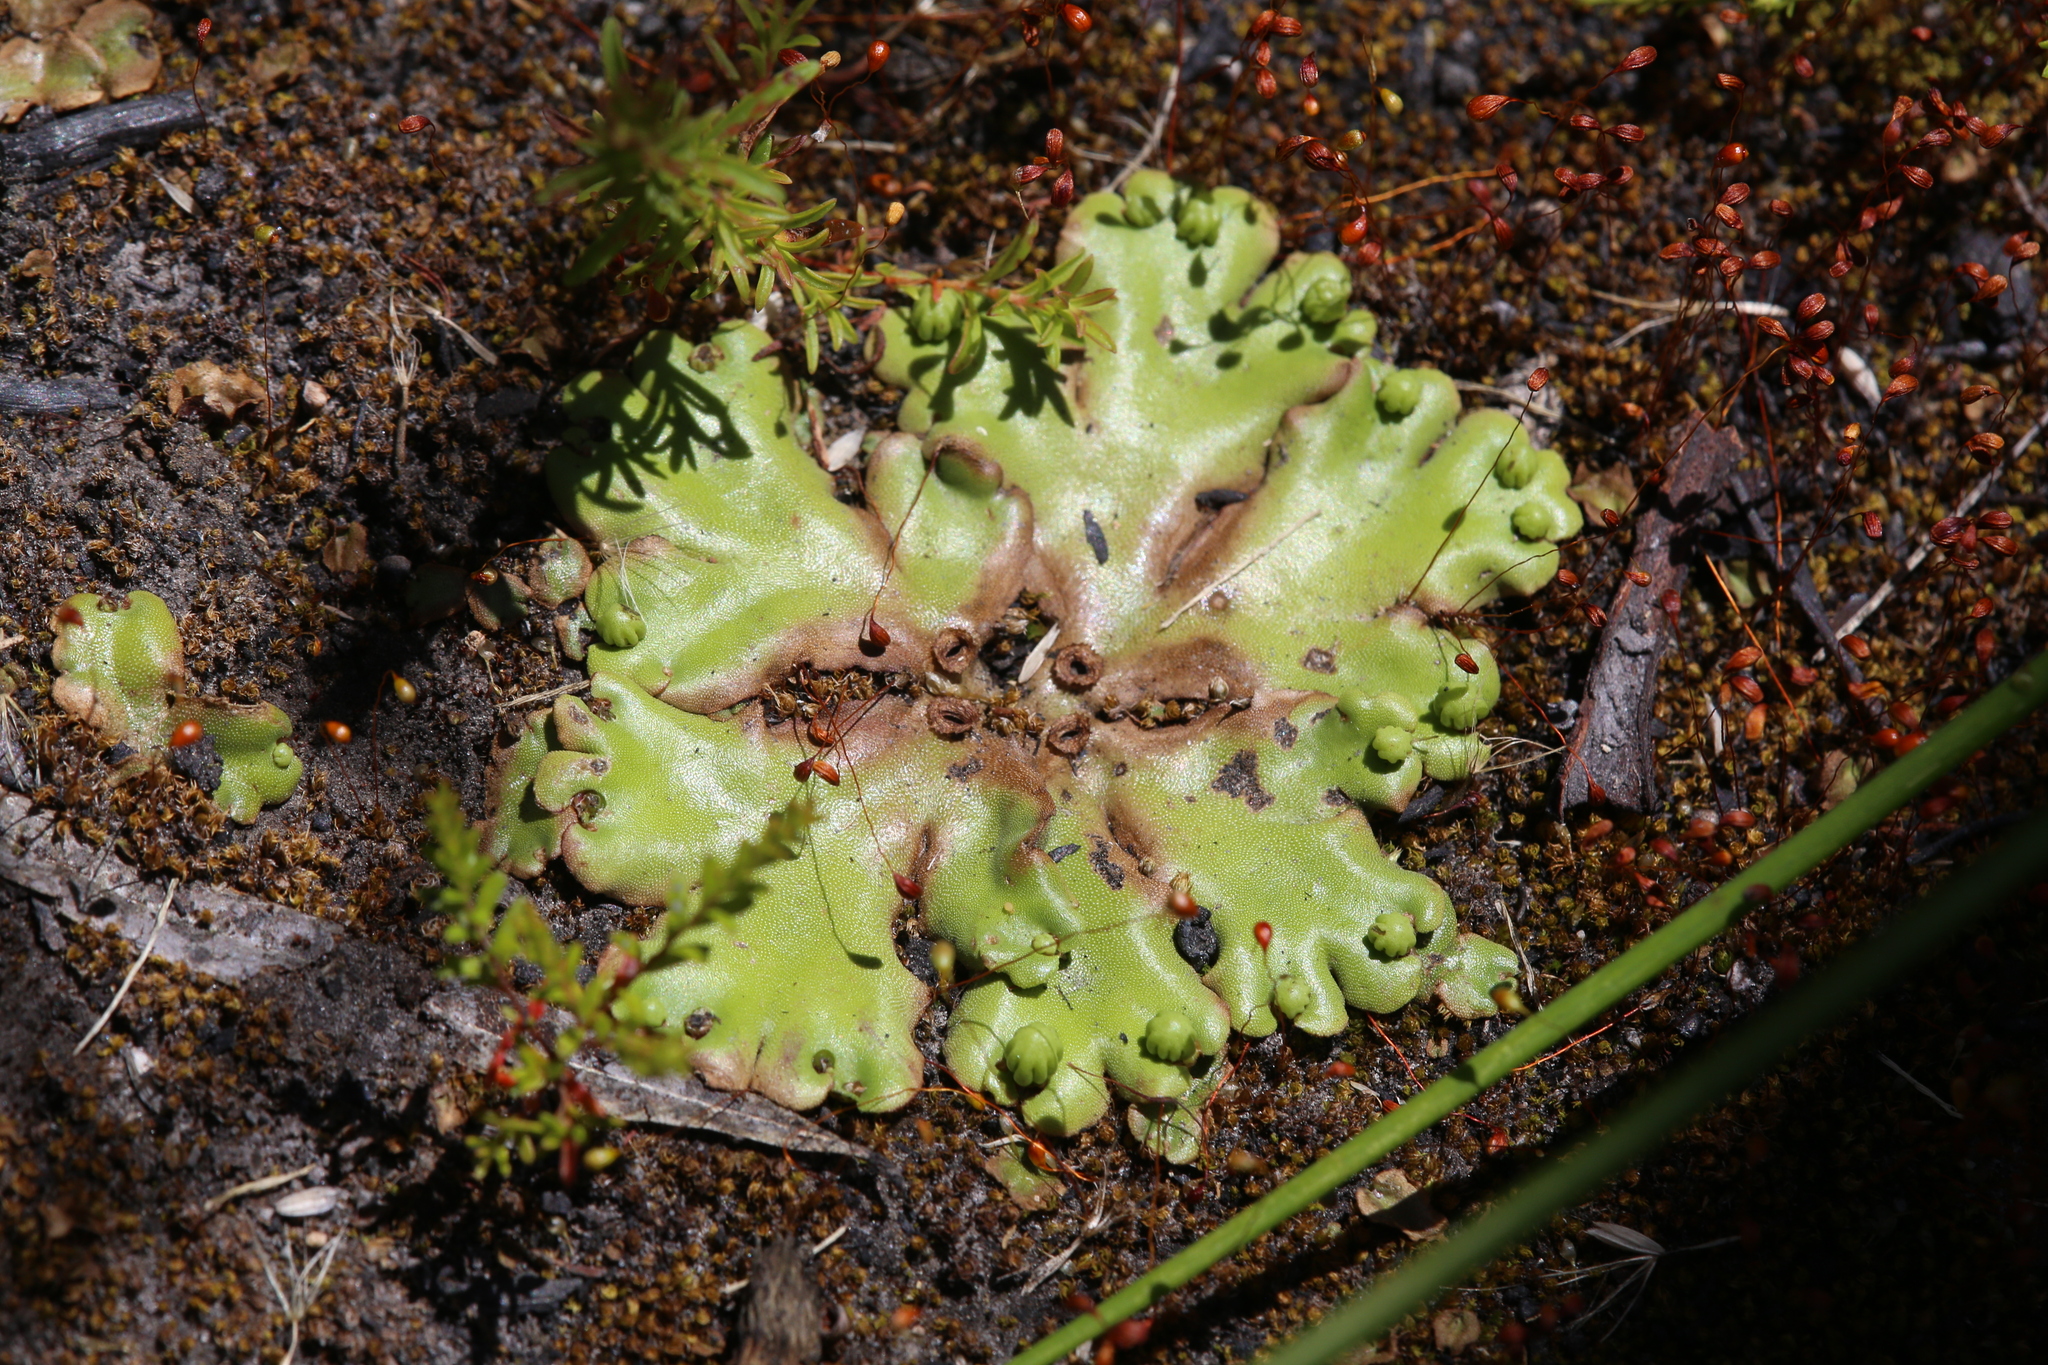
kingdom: Plantae
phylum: Marchantiophyta
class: Marchantiopsida
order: Marchantiales
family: Marchantiaceae
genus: Marchantia
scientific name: Marchantia berteroana
